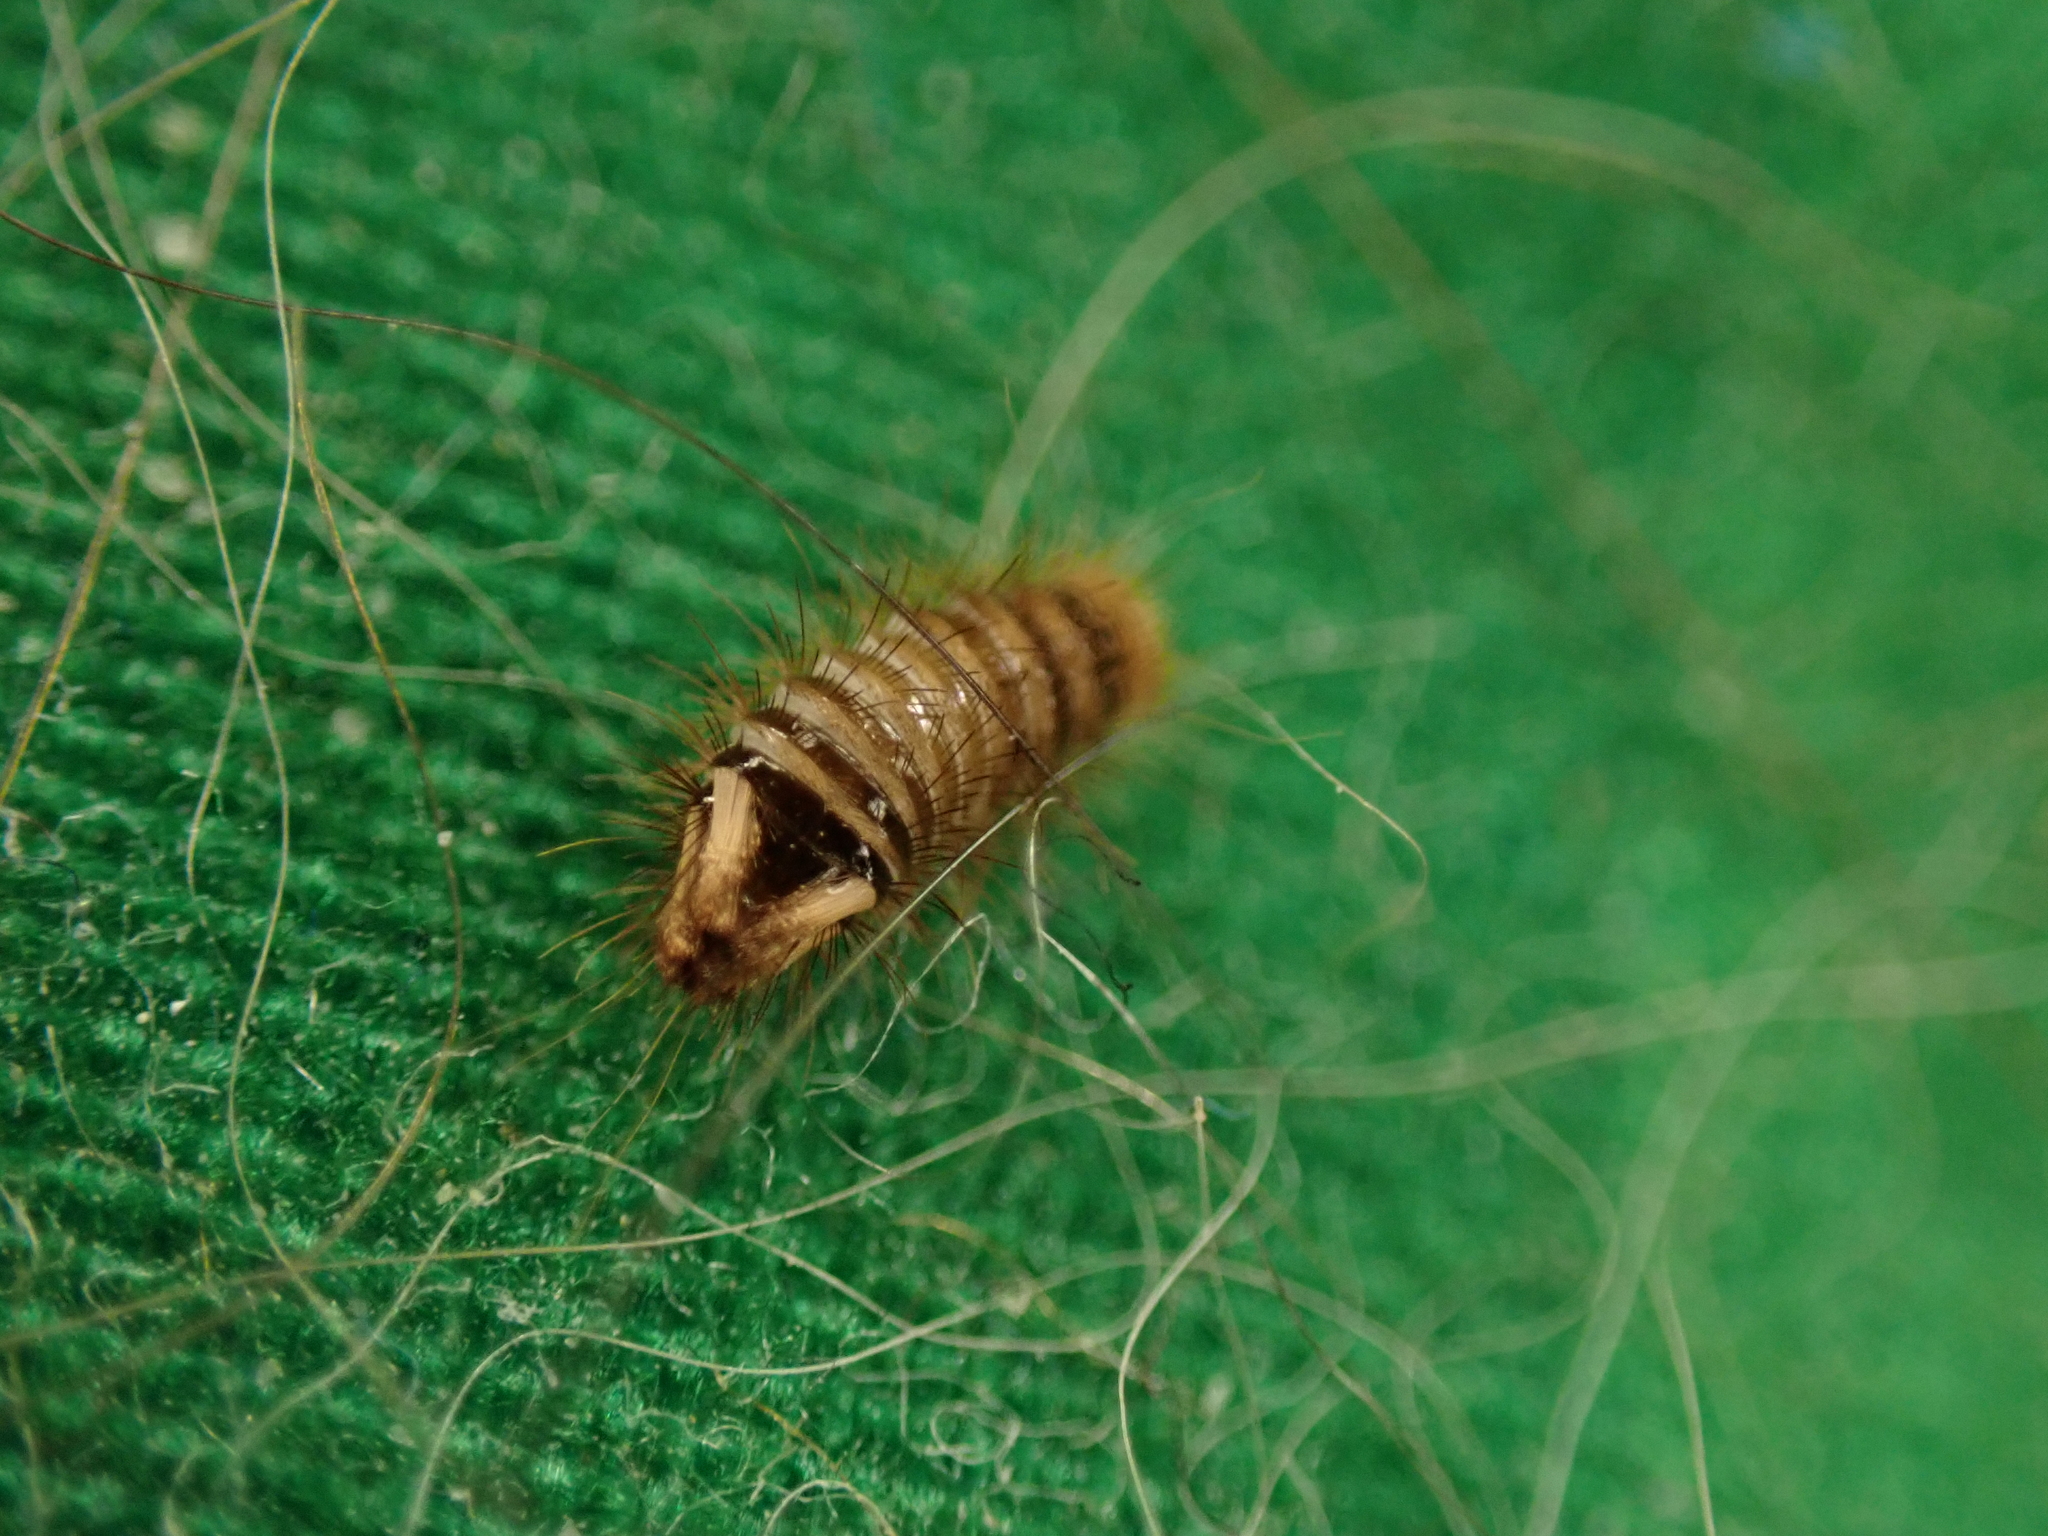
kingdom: Animalia
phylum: Arthropoda
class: Insecta
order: Coleoptera
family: Dermestidae
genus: Anthrenus
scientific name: Anthrenus verbasci
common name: Varied carpet beetle
